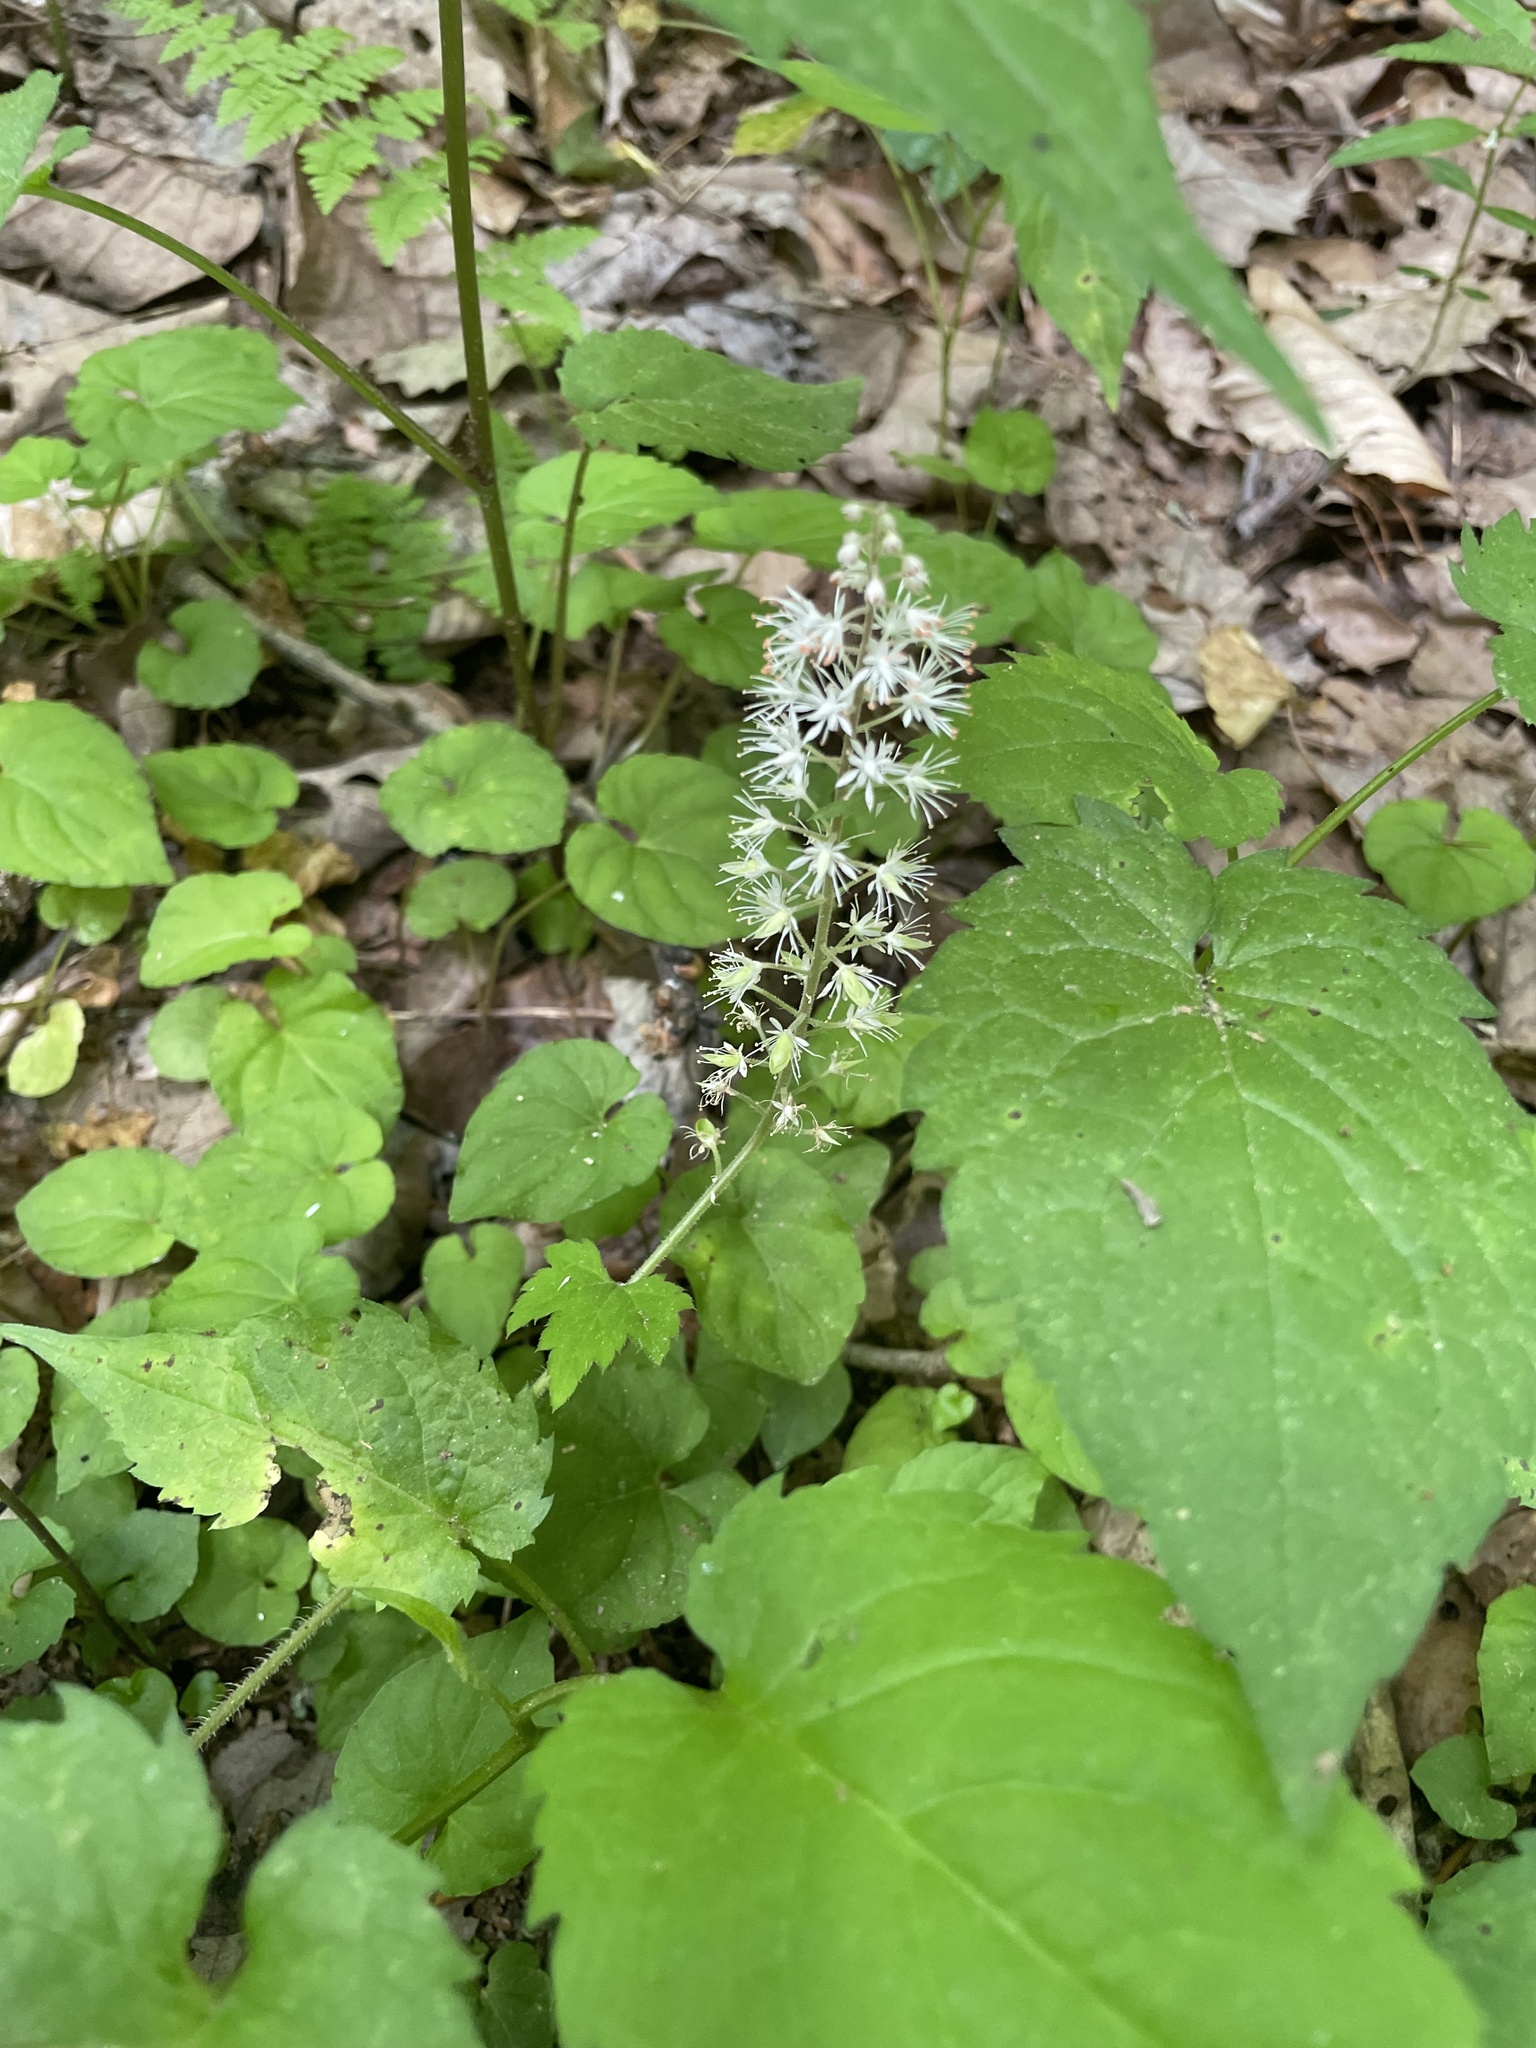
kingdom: Plantae
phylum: Tracheophyta
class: Magnoliopsida
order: Saxifragales
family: Saxifragaceae
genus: Tiarella
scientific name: Tiarella nautila
